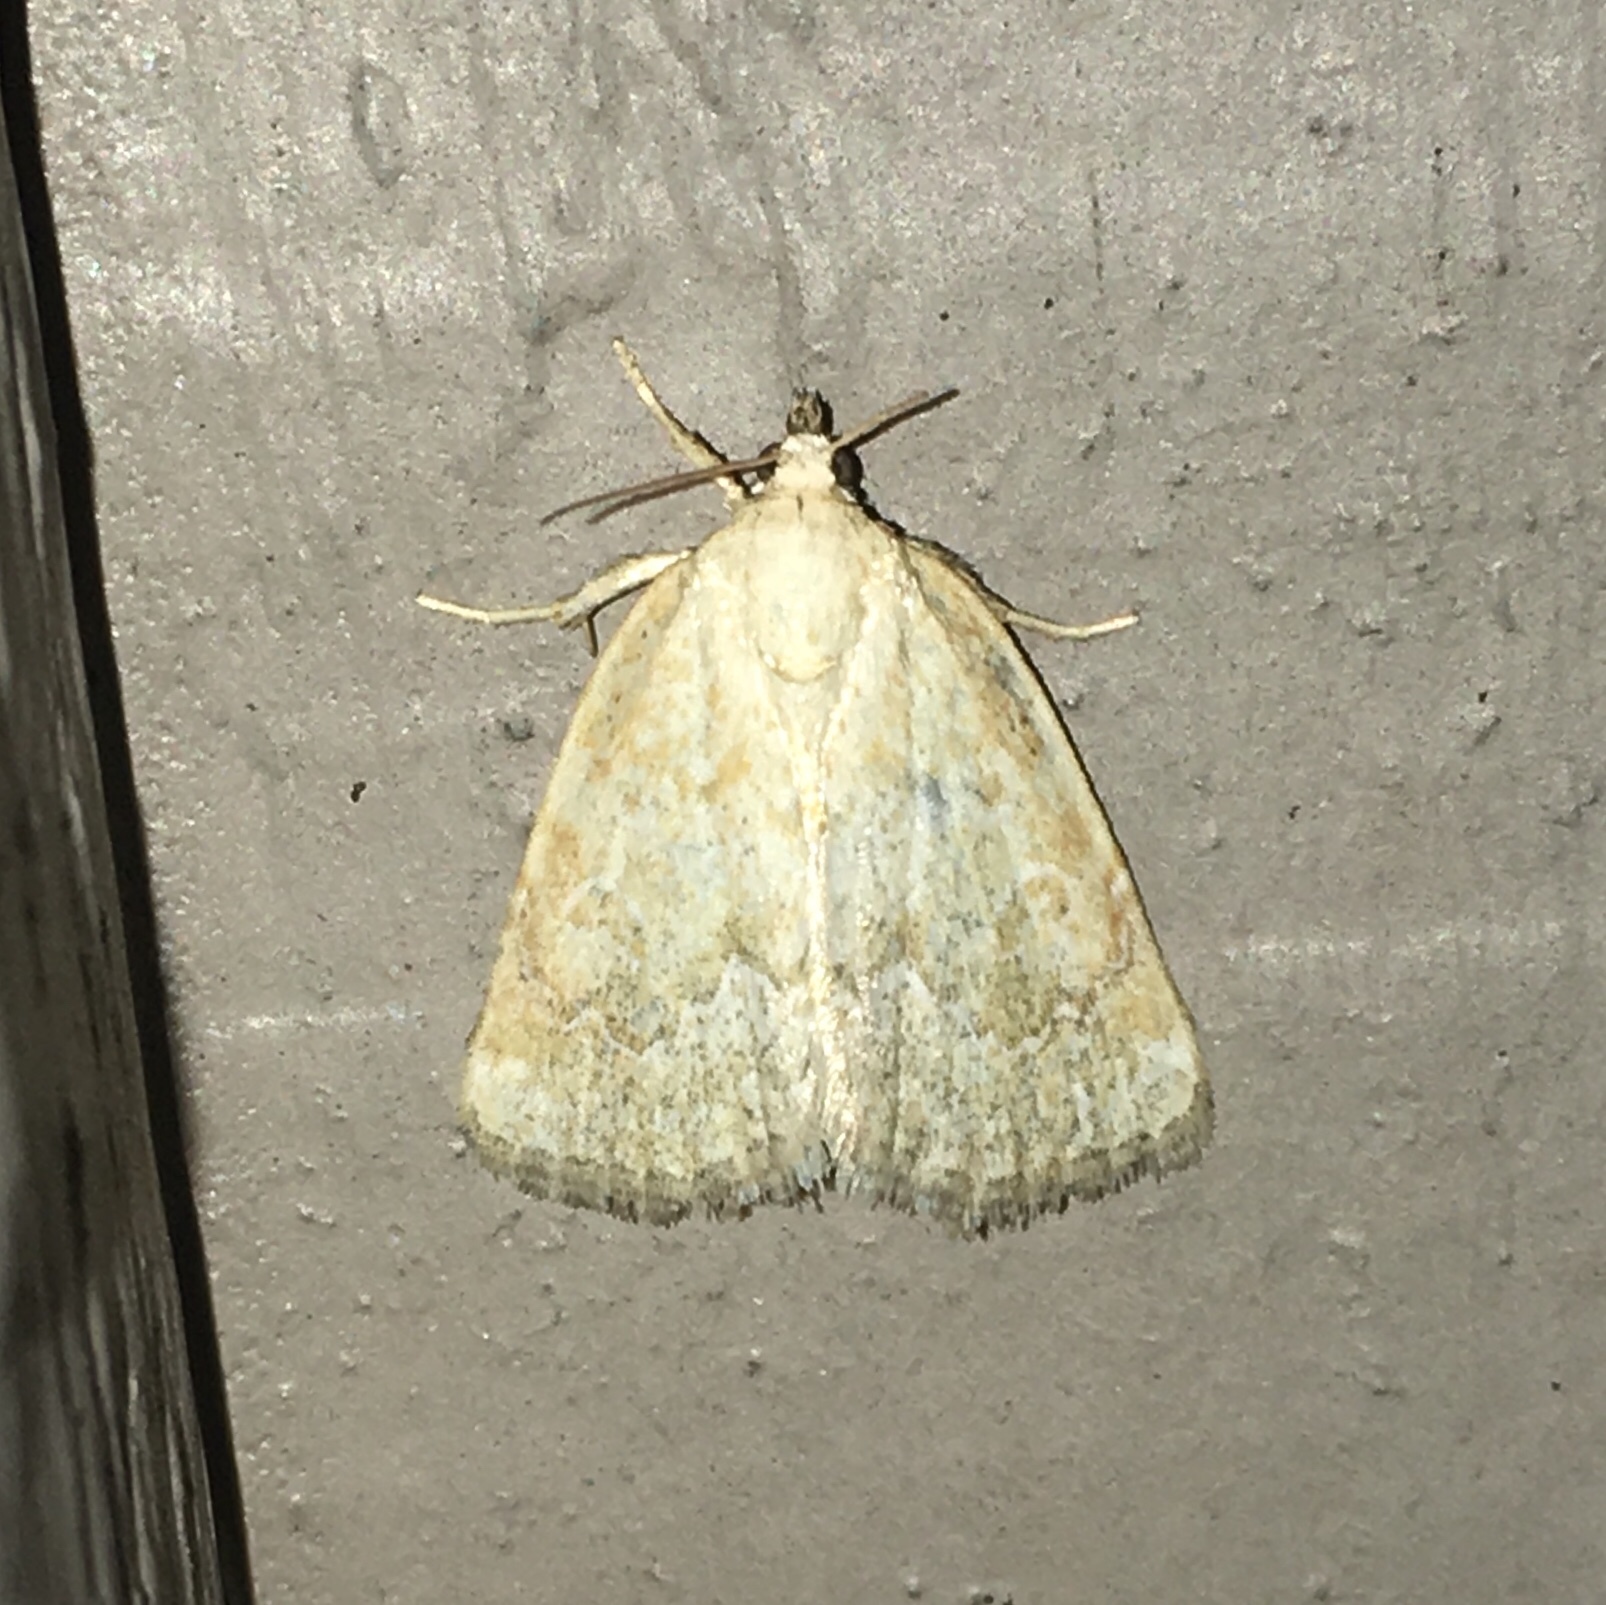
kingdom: Animalia
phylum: Arthropoda
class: Insecta
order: Lepidoptera
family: Noctuidae
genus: Protodeltote
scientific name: Protodeltote albidula
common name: Pale glyph
